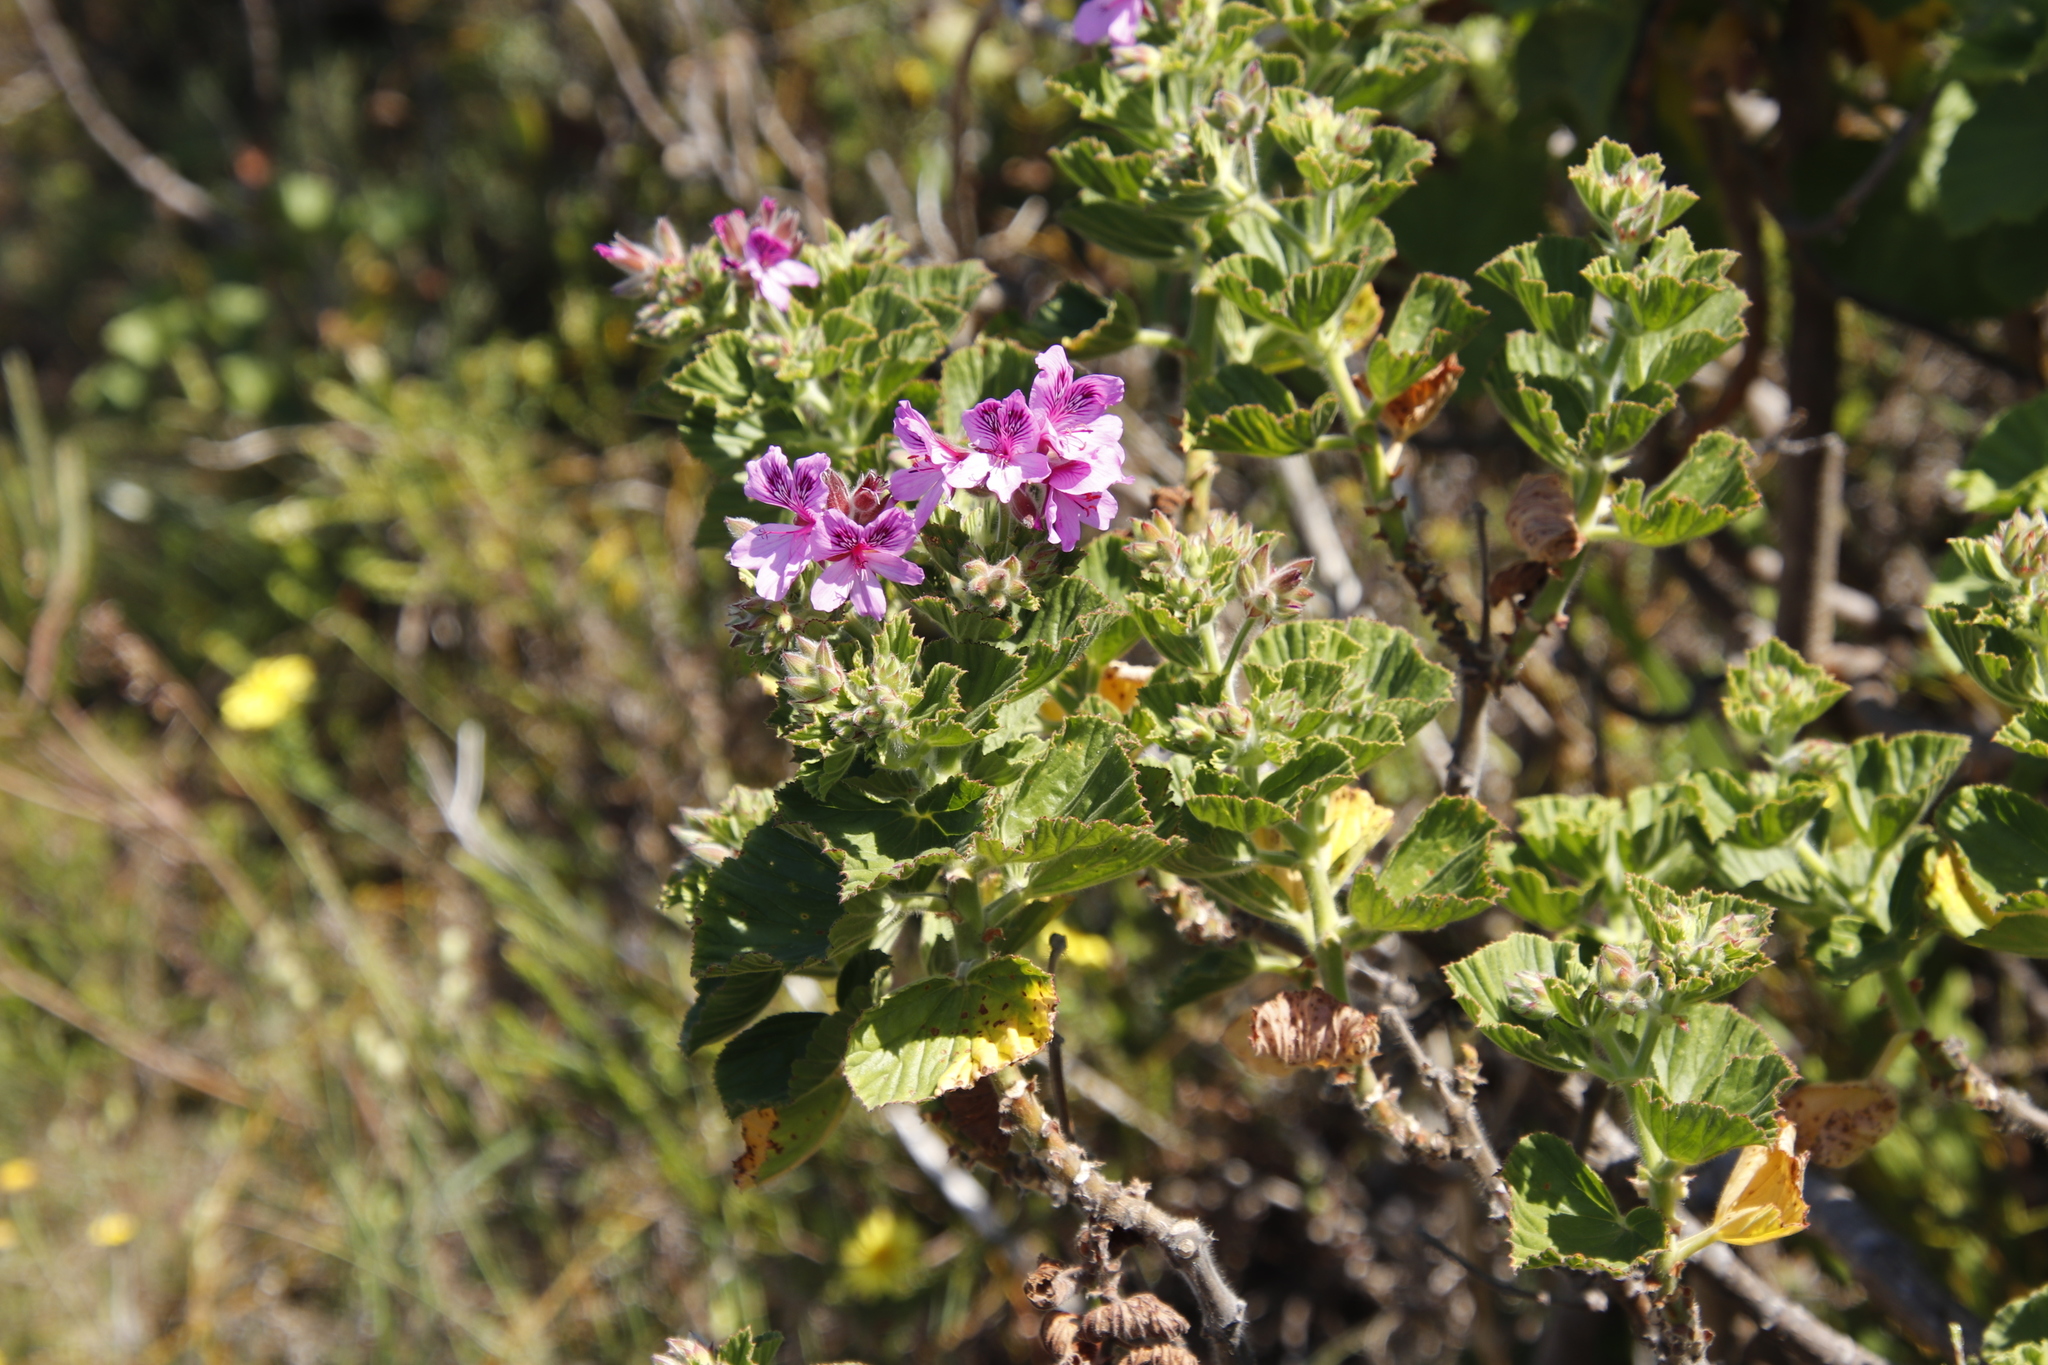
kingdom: Plantae
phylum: Tracheophyta
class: Magnoliopsida
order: Geraniales
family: Geraniaceae
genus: Pelargonium
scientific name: Pelargonium cucullatum
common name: Tree pelargonium
